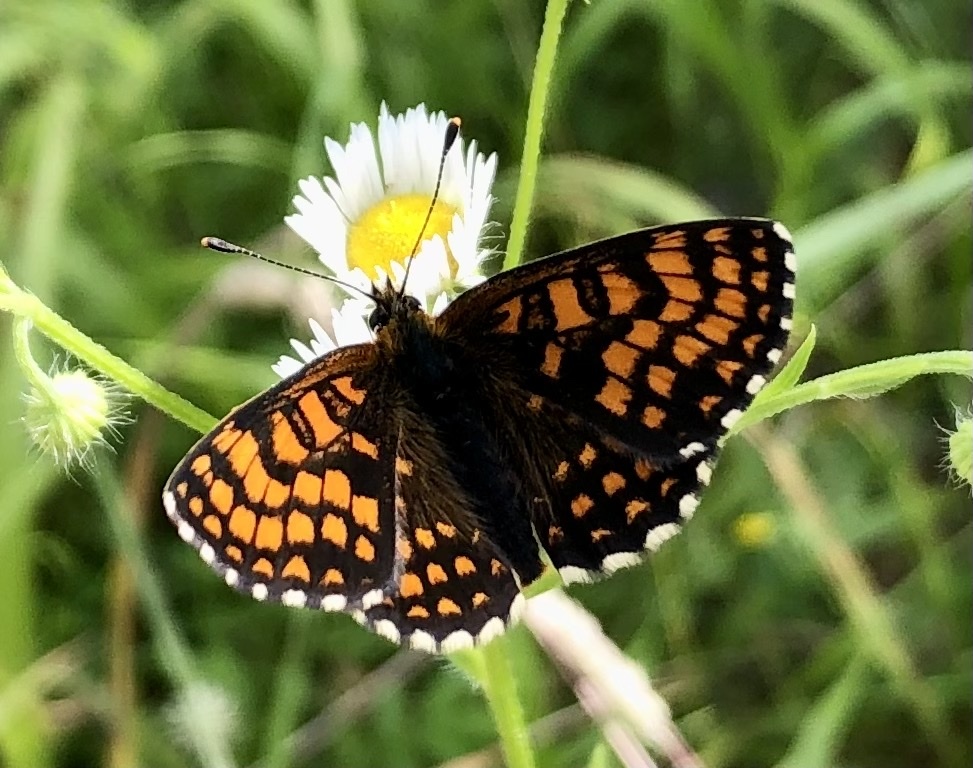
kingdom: Animalia
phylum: Arthropoda
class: Insecta
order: Lepidoptera
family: Nymphalidae
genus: Melitaea
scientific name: Melitaea athalia
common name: Heath fritillary
